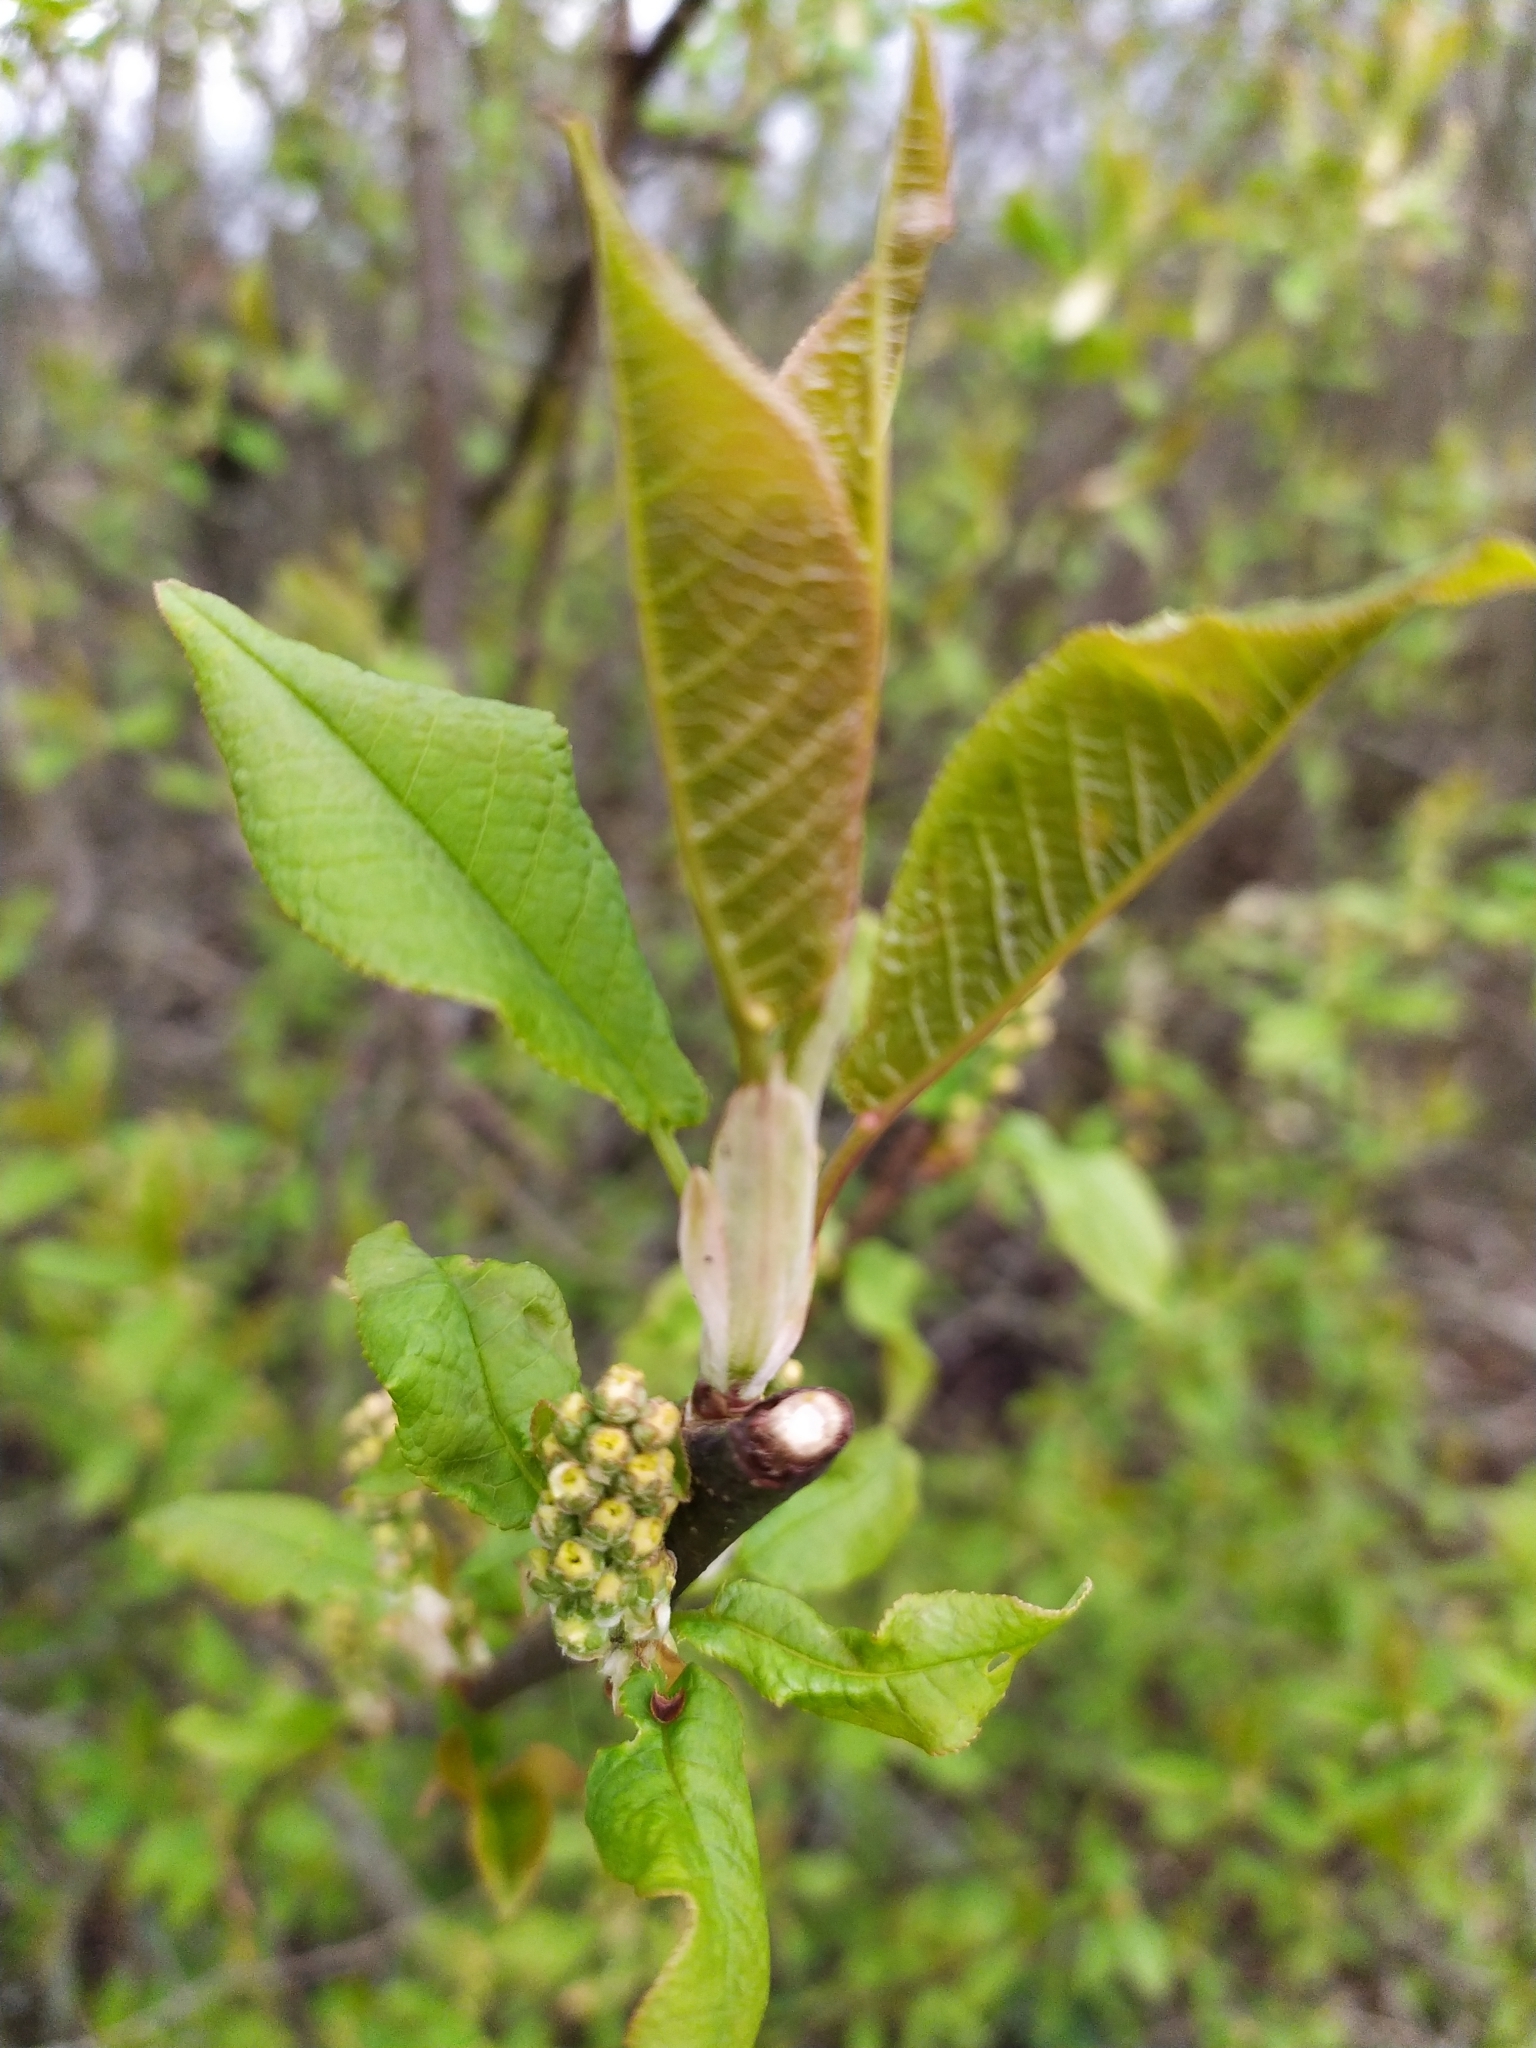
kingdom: Plantae
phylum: Tracheophyta
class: Magnoliopsida
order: Rosales
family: Rosaceae
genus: Prunus
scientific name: Prunus padus
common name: Bird cherry
